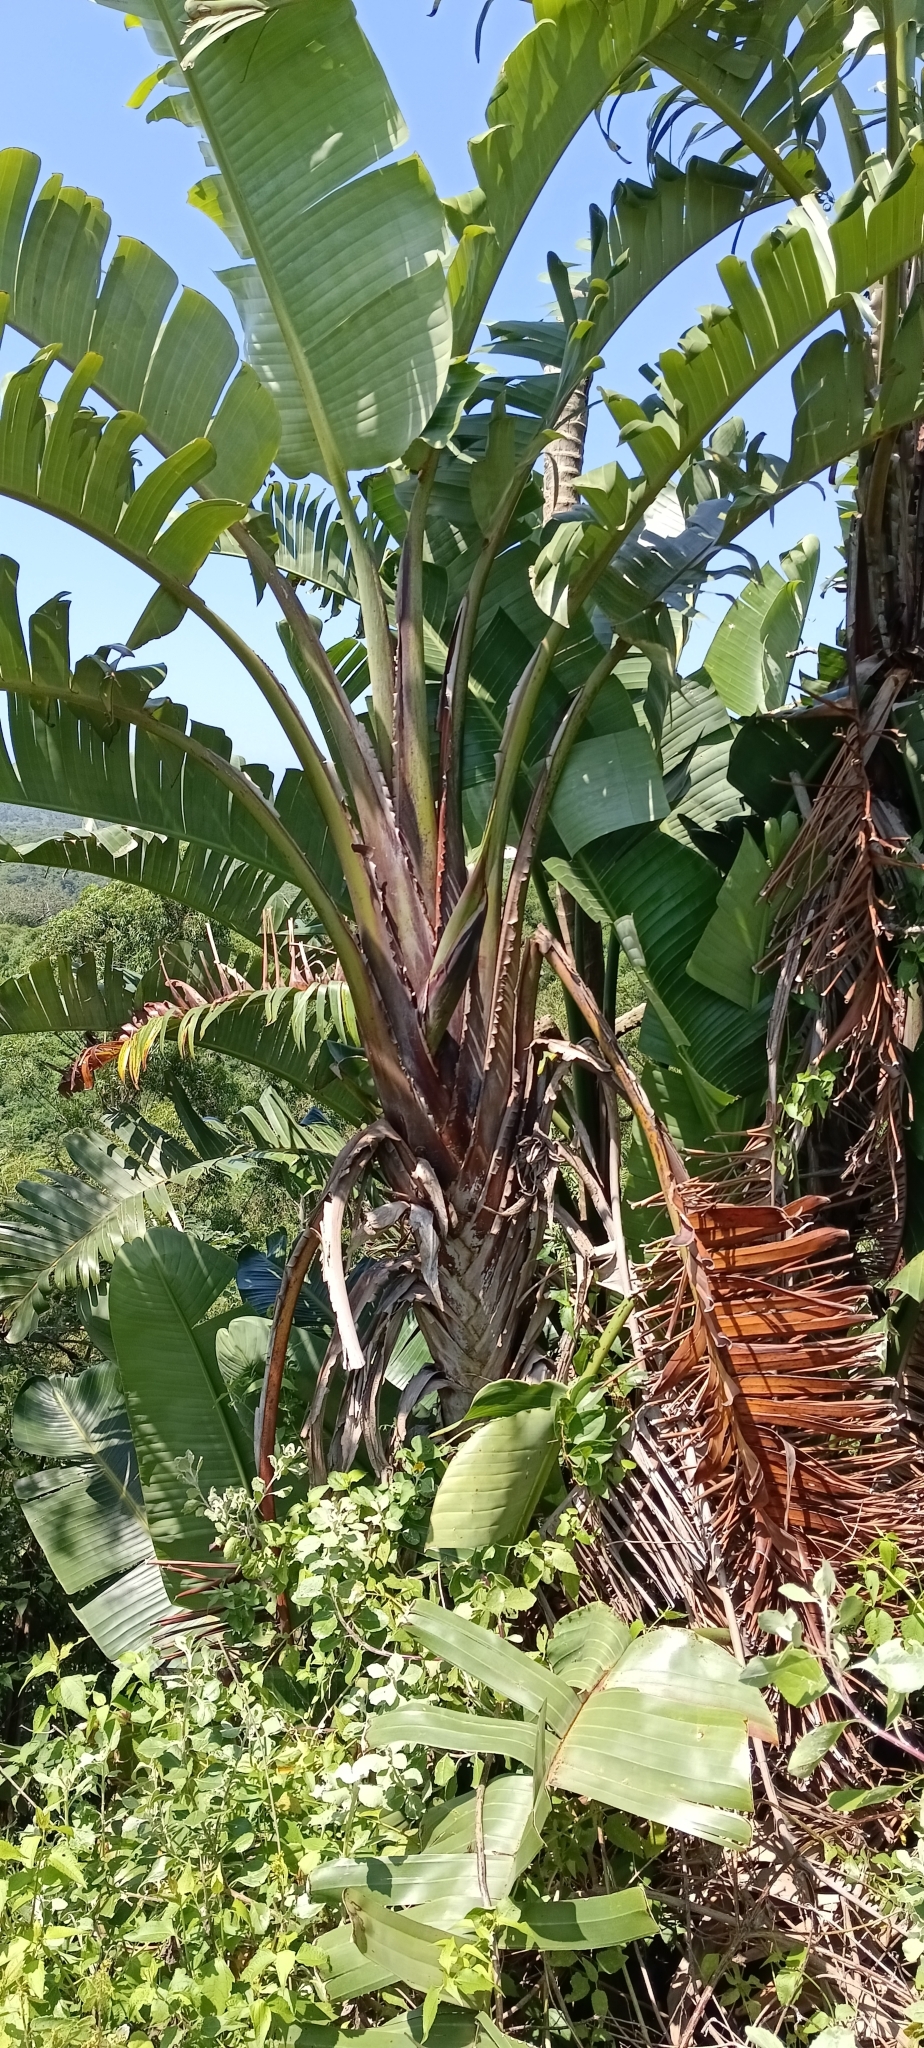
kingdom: Plantae
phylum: Tracheophyta
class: Liliopsida
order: Zingiberales
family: Strelitziaceae
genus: Strelitzia
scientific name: Strelitzia nicolai
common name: Bird-of-paradise tree
